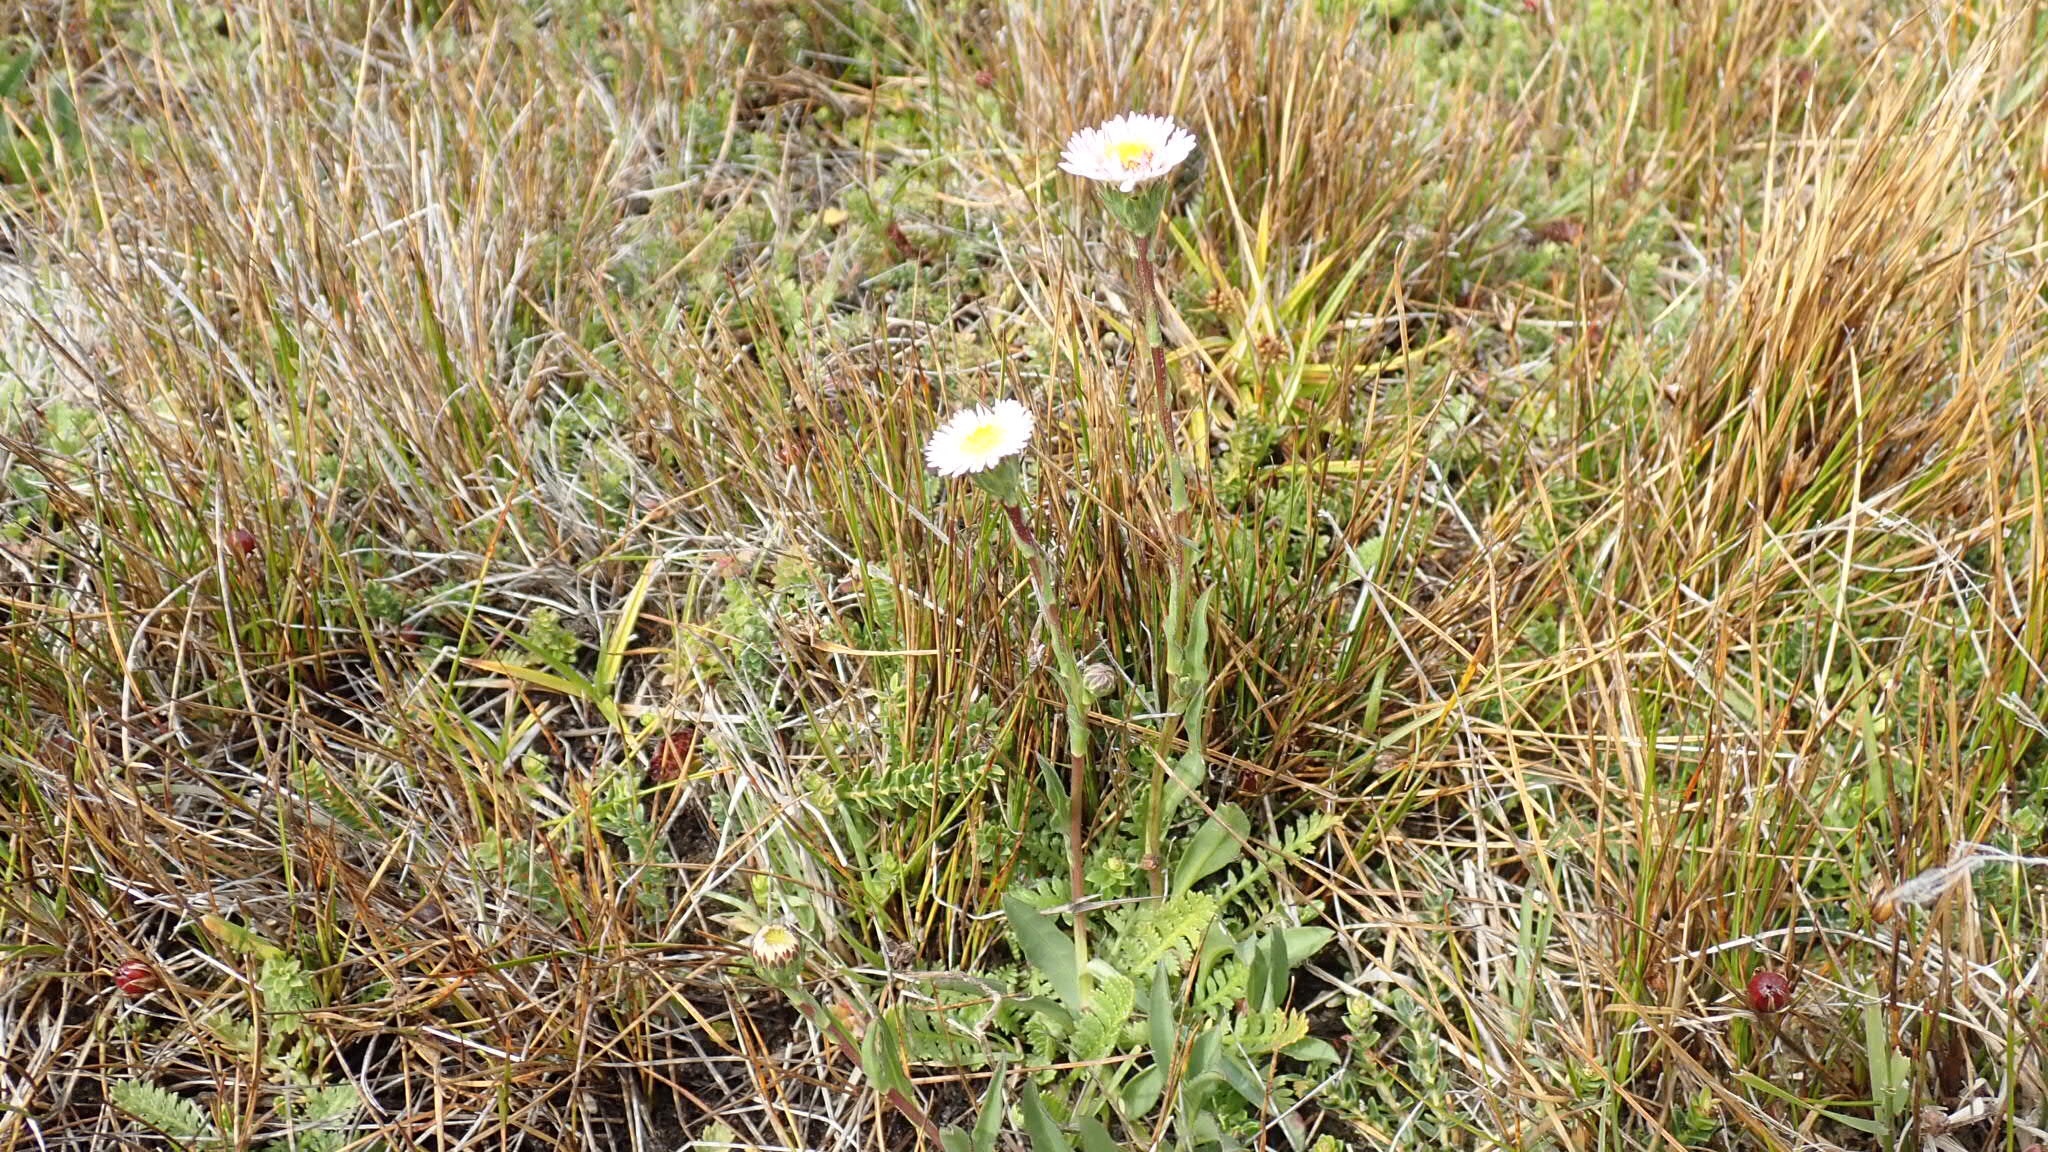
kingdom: Plantae
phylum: Tracheophyta
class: Magnoliopsida
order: Asterales
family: Asteraceae
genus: Symphyotrichum
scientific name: Symphyotrichum vahlii
